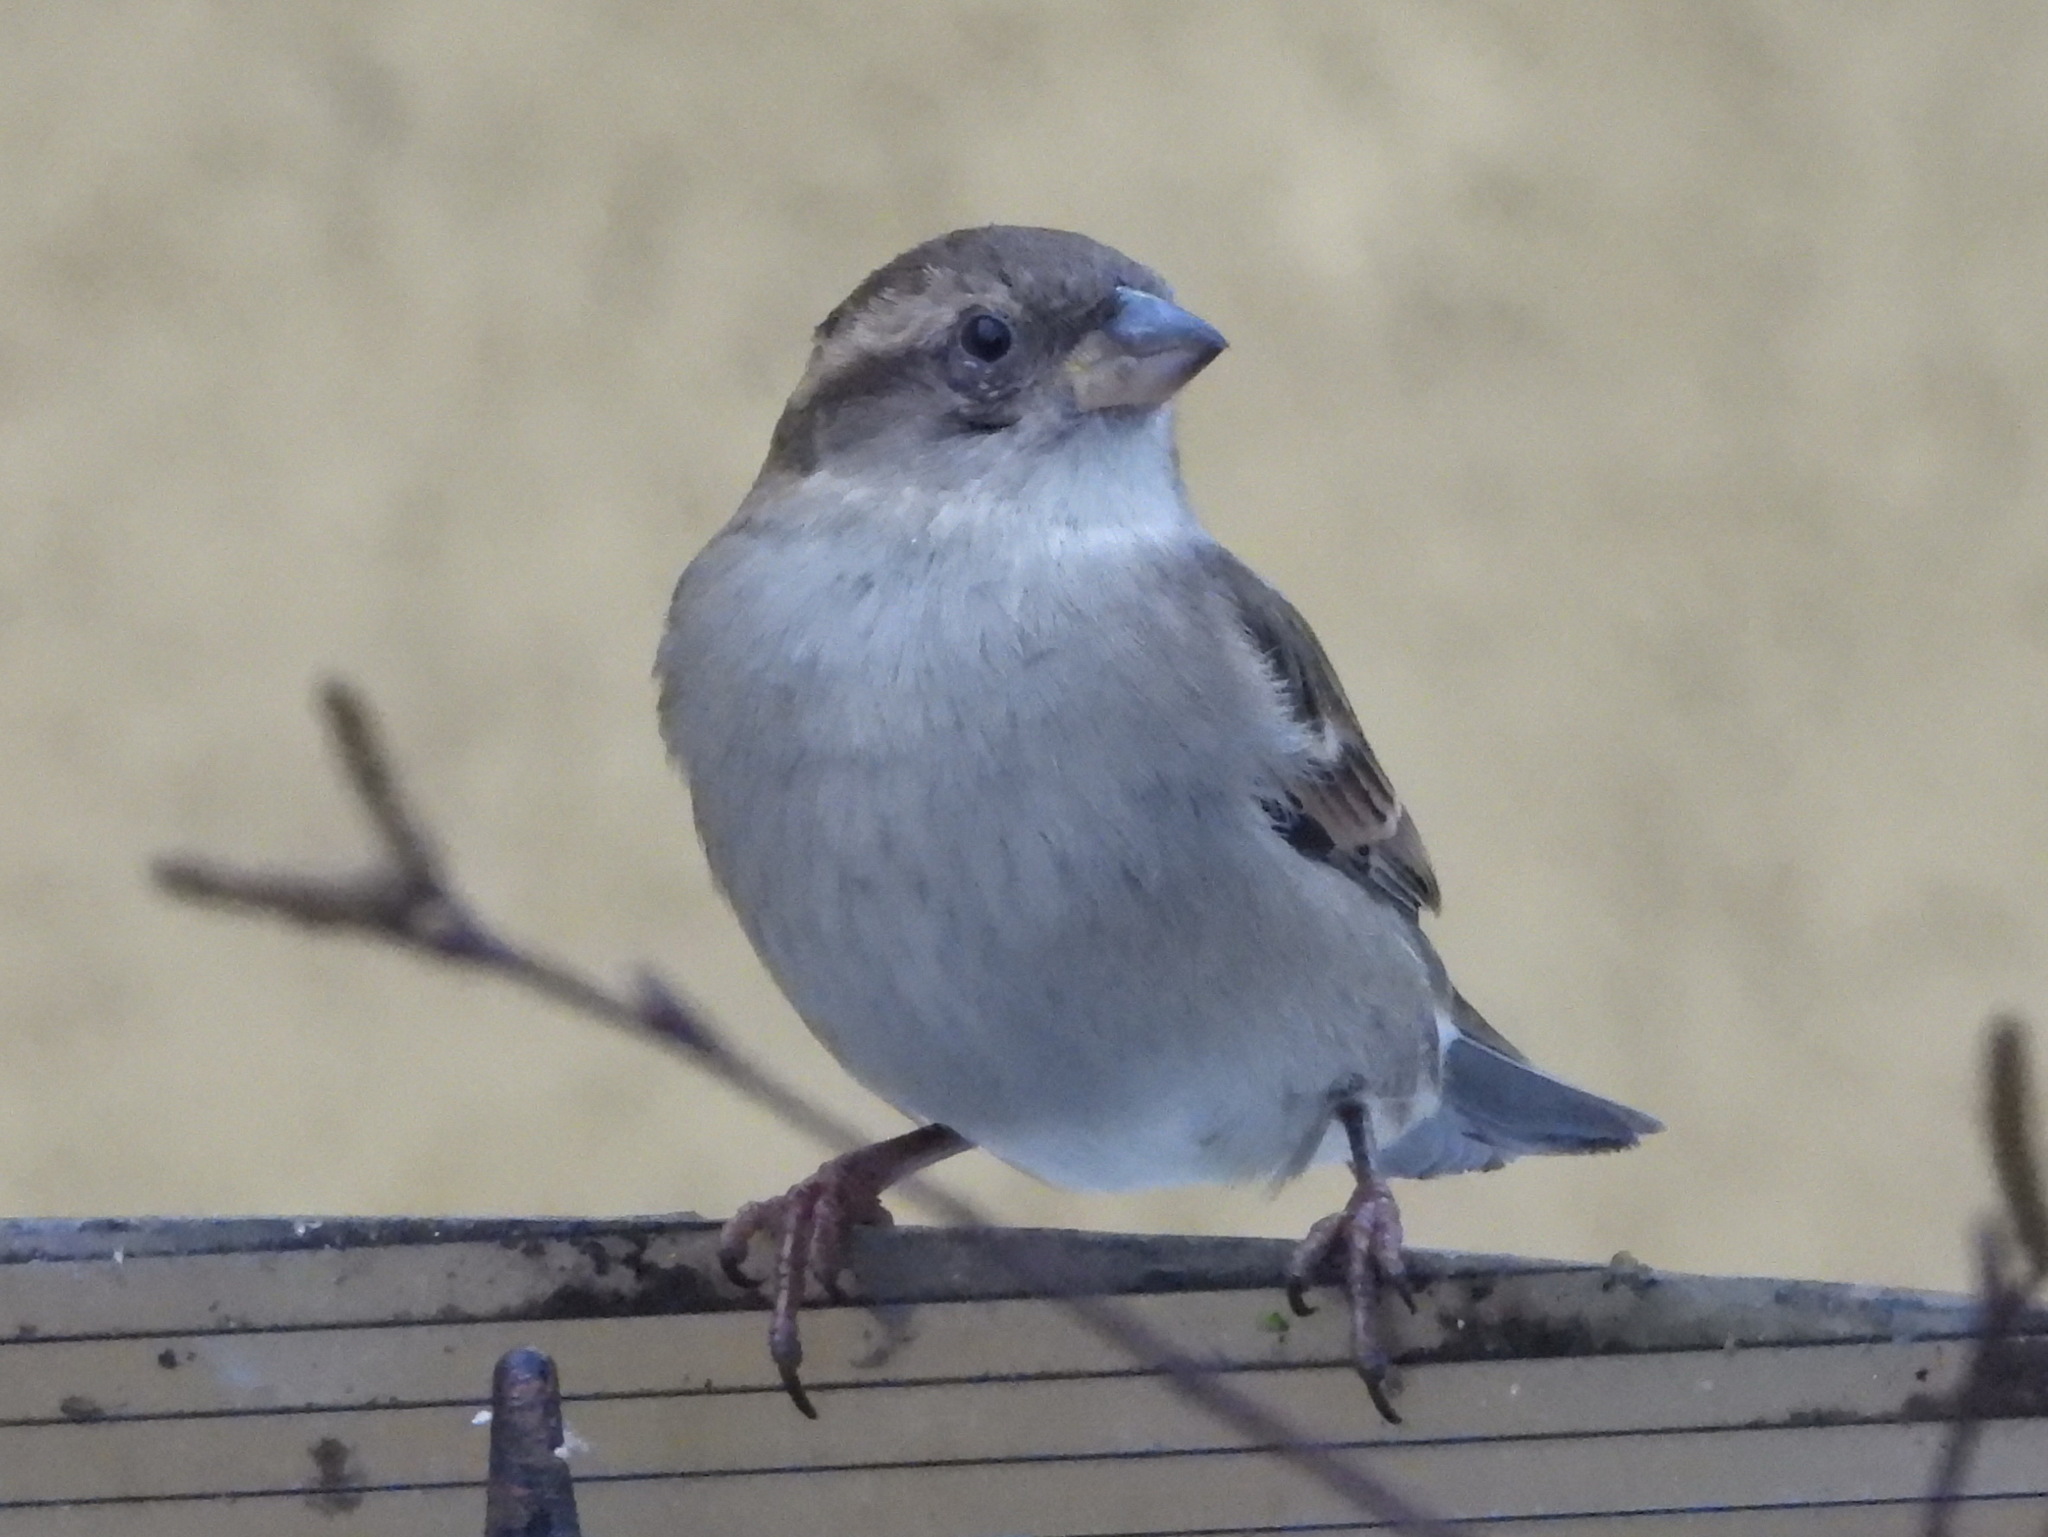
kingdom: Animalia
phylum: Chordata
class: Aves
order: Passeriformes
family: Passeridae
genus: Passer
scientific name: Passer domesticus
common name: House sparrow
